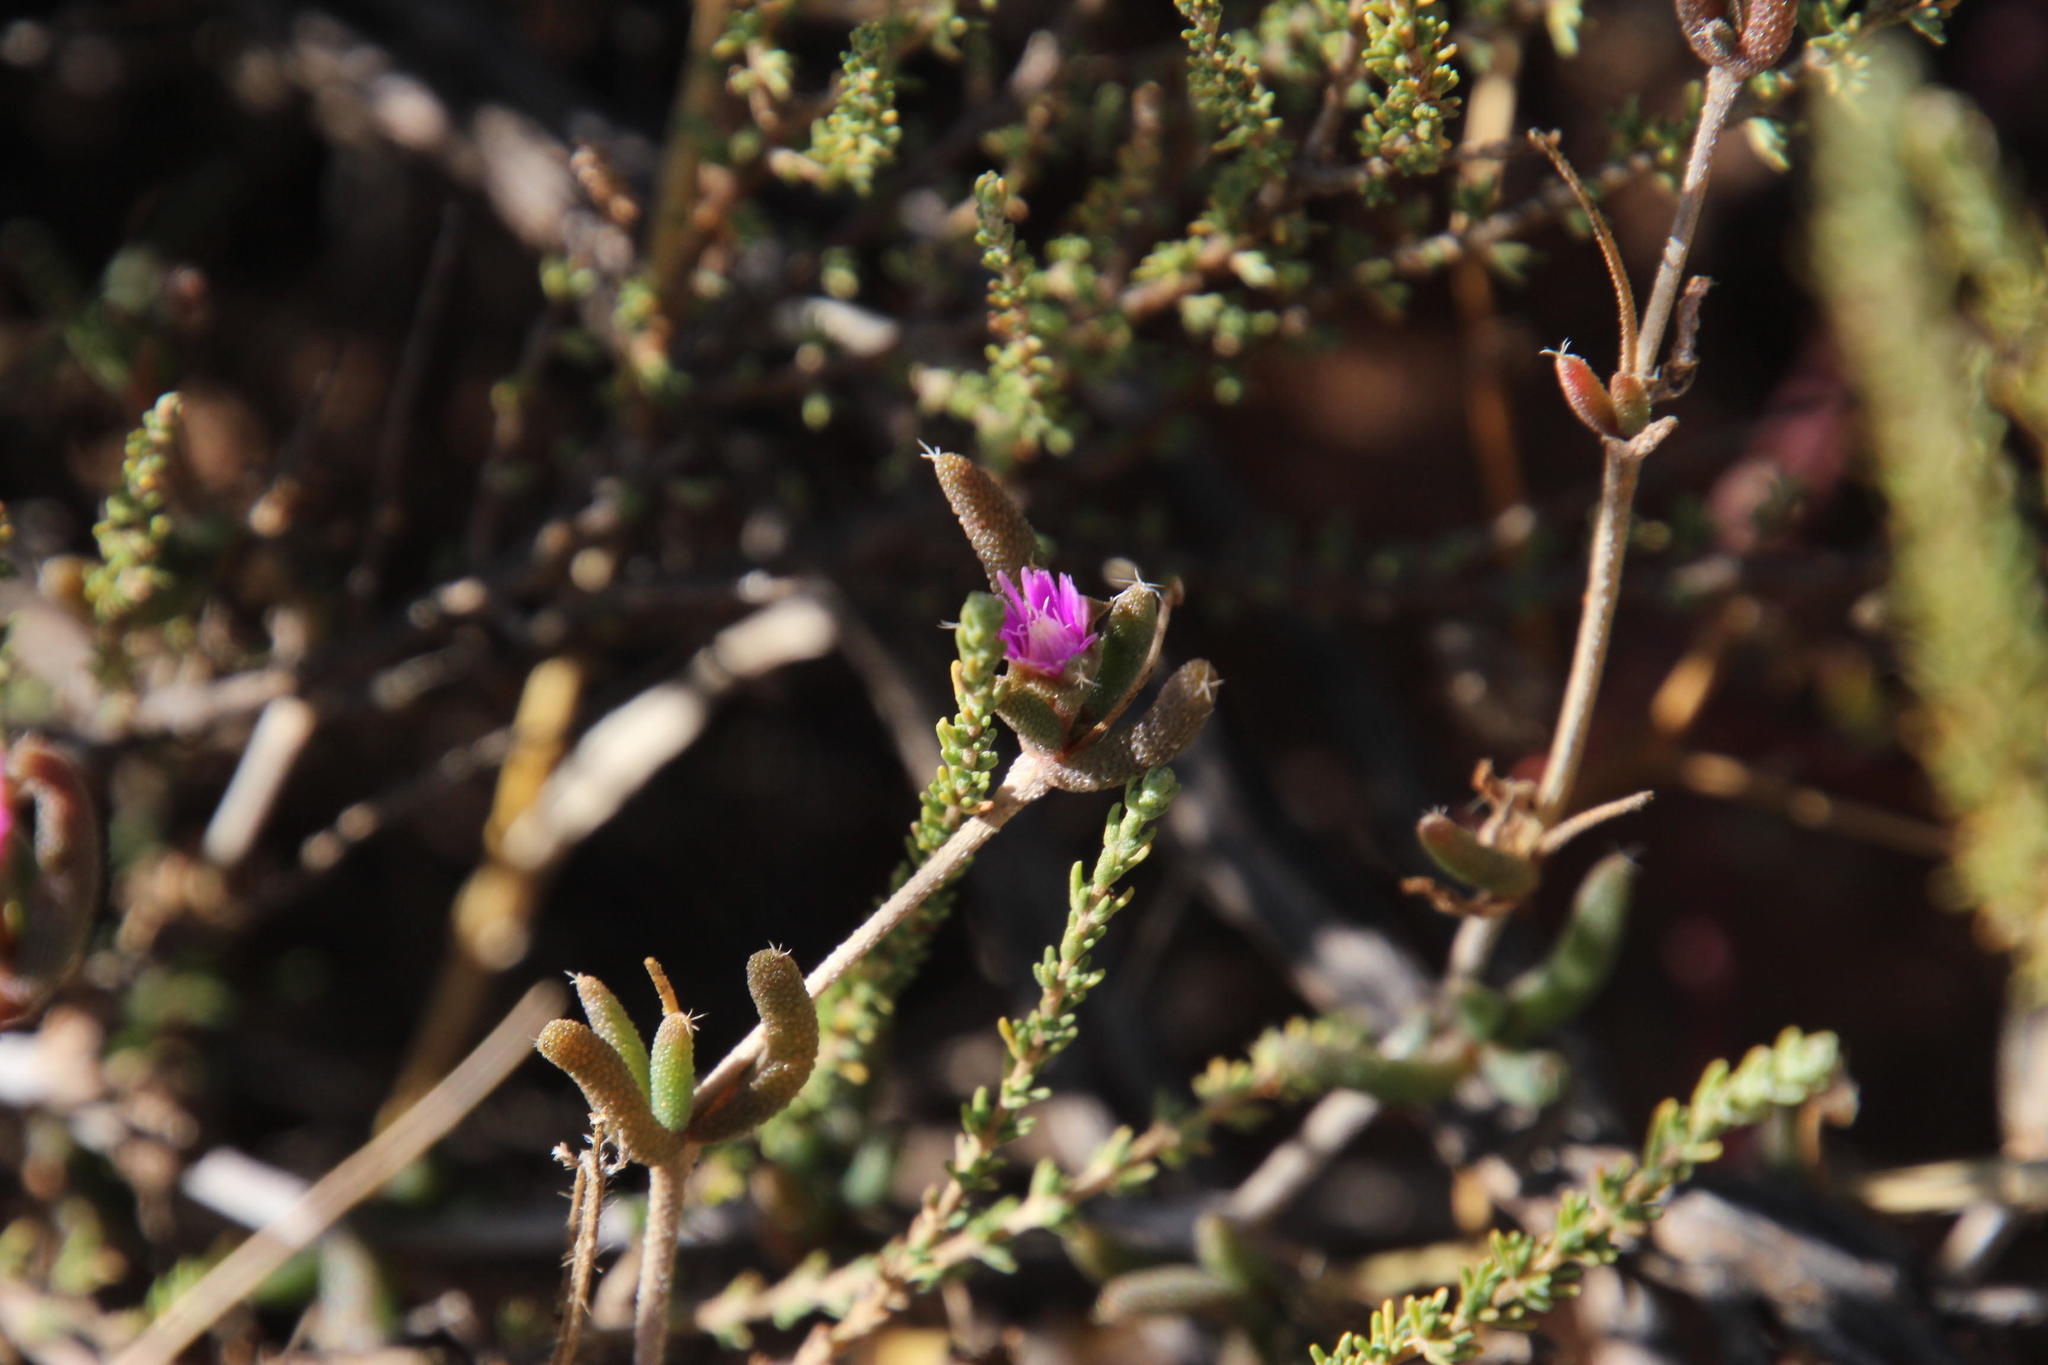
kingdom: Plantae
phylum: Tracheophyta
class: Magnoliopsida
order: Caryophyllales
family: Aizoaceae
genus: Trichodiadema
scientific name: Trichodiadema pomeridianum
